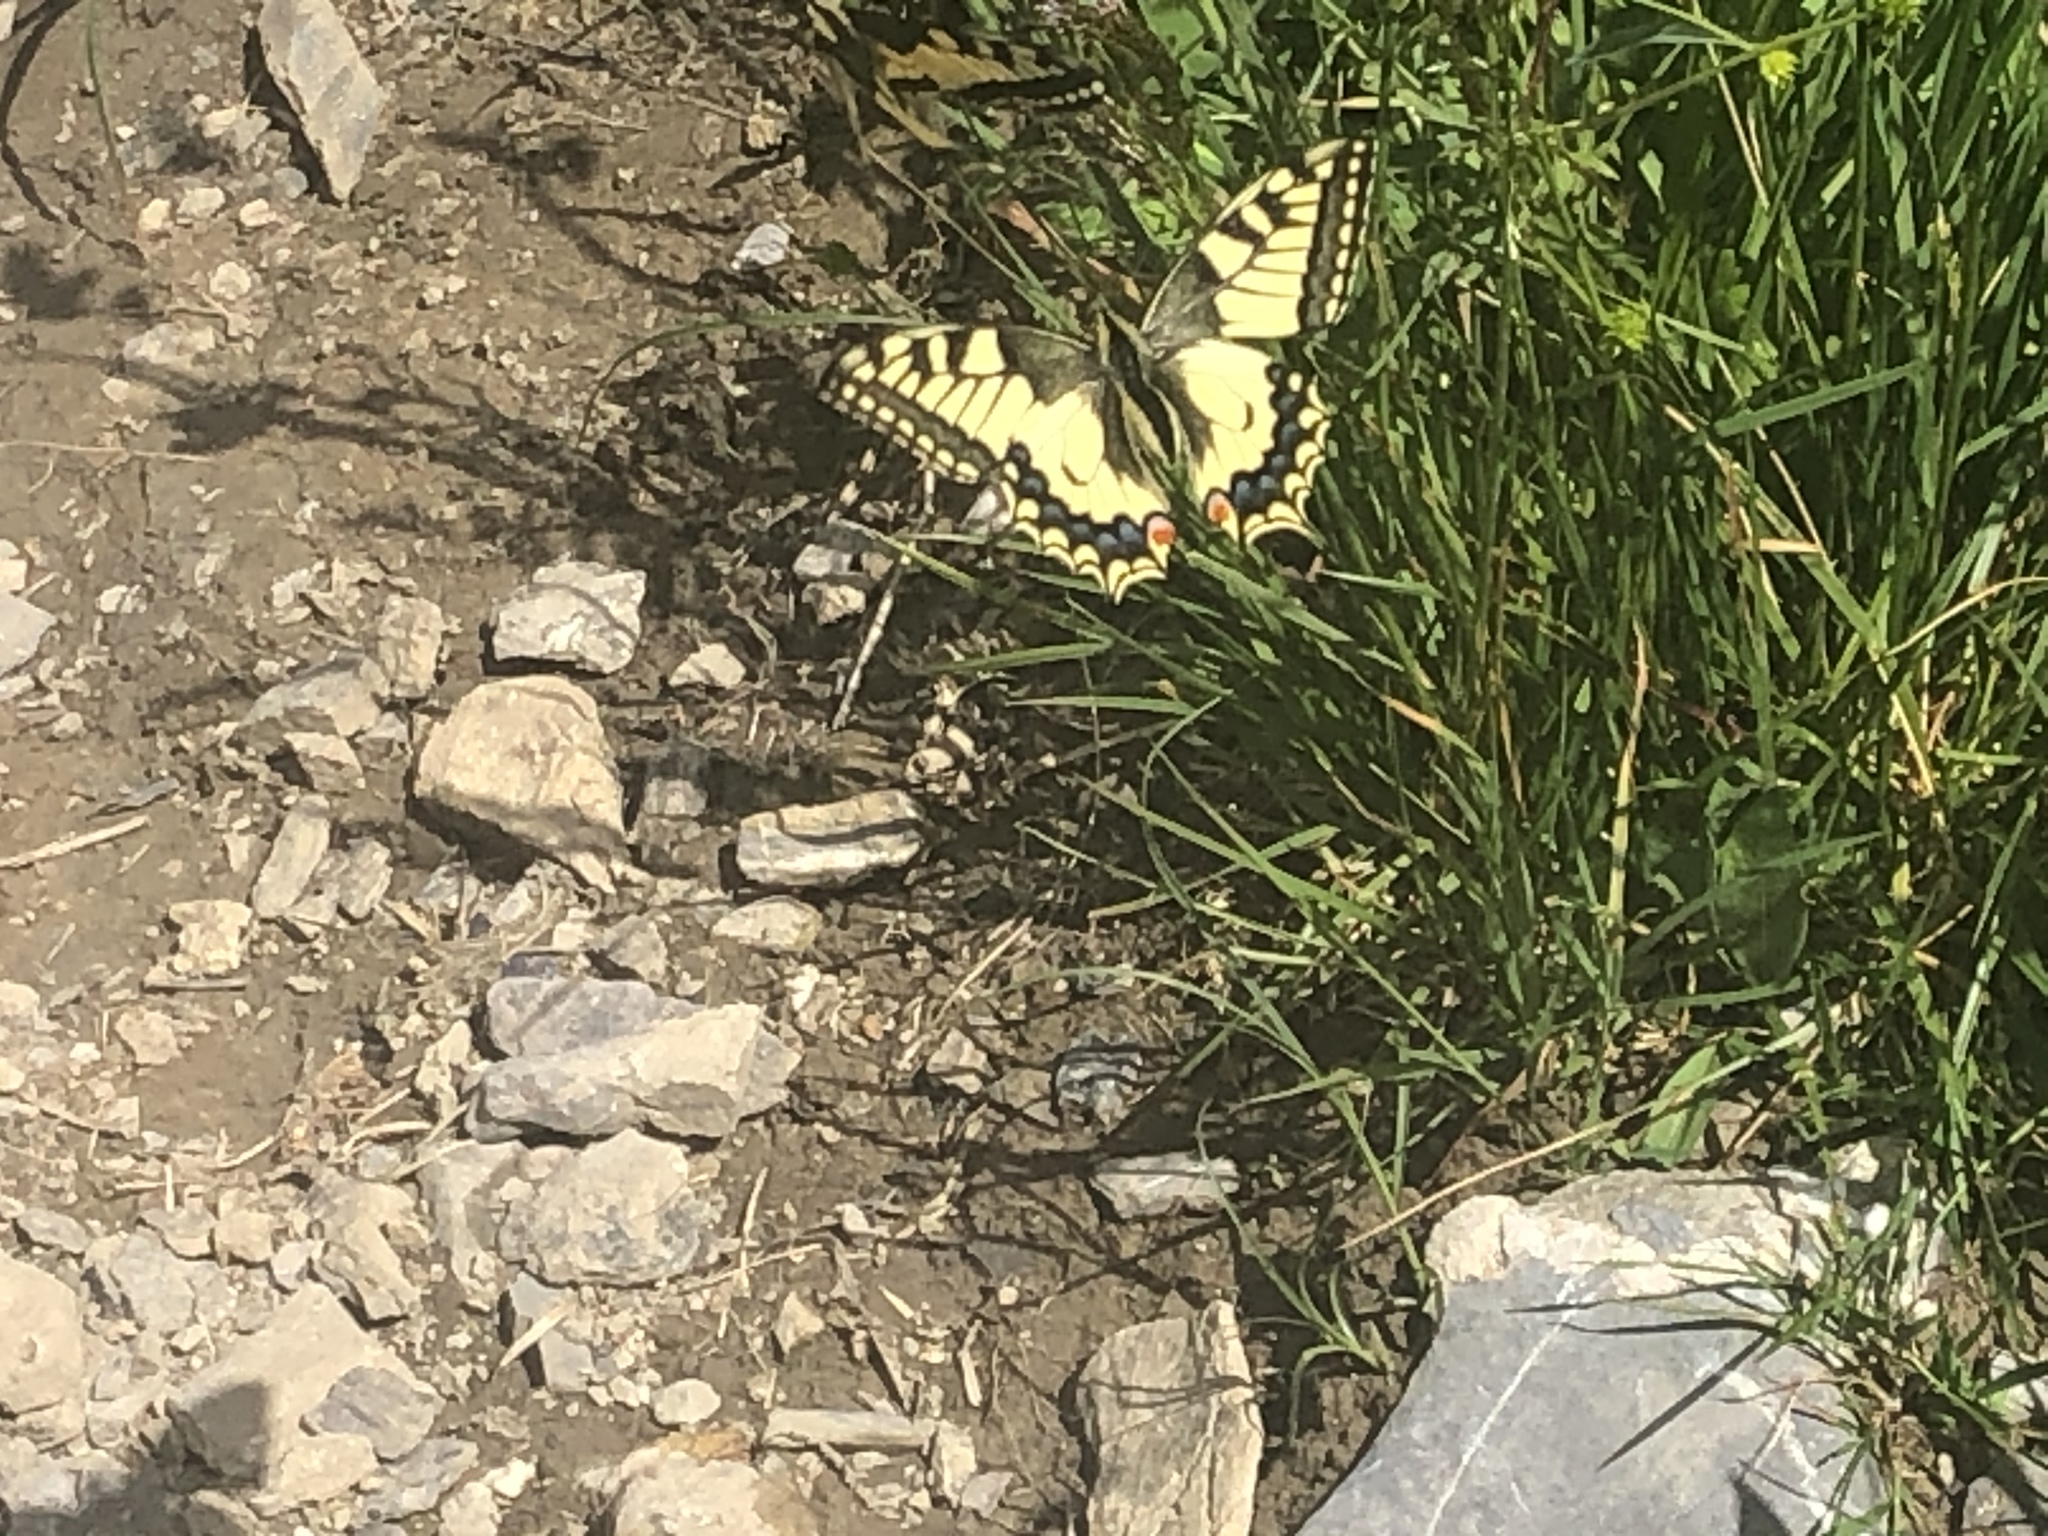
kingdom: Animalia
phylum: Arthropoda
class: Insecta
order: Lepidoptera
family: Papilionidae
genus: Papilio
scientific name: Papilio machaon
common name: Swallowtail
